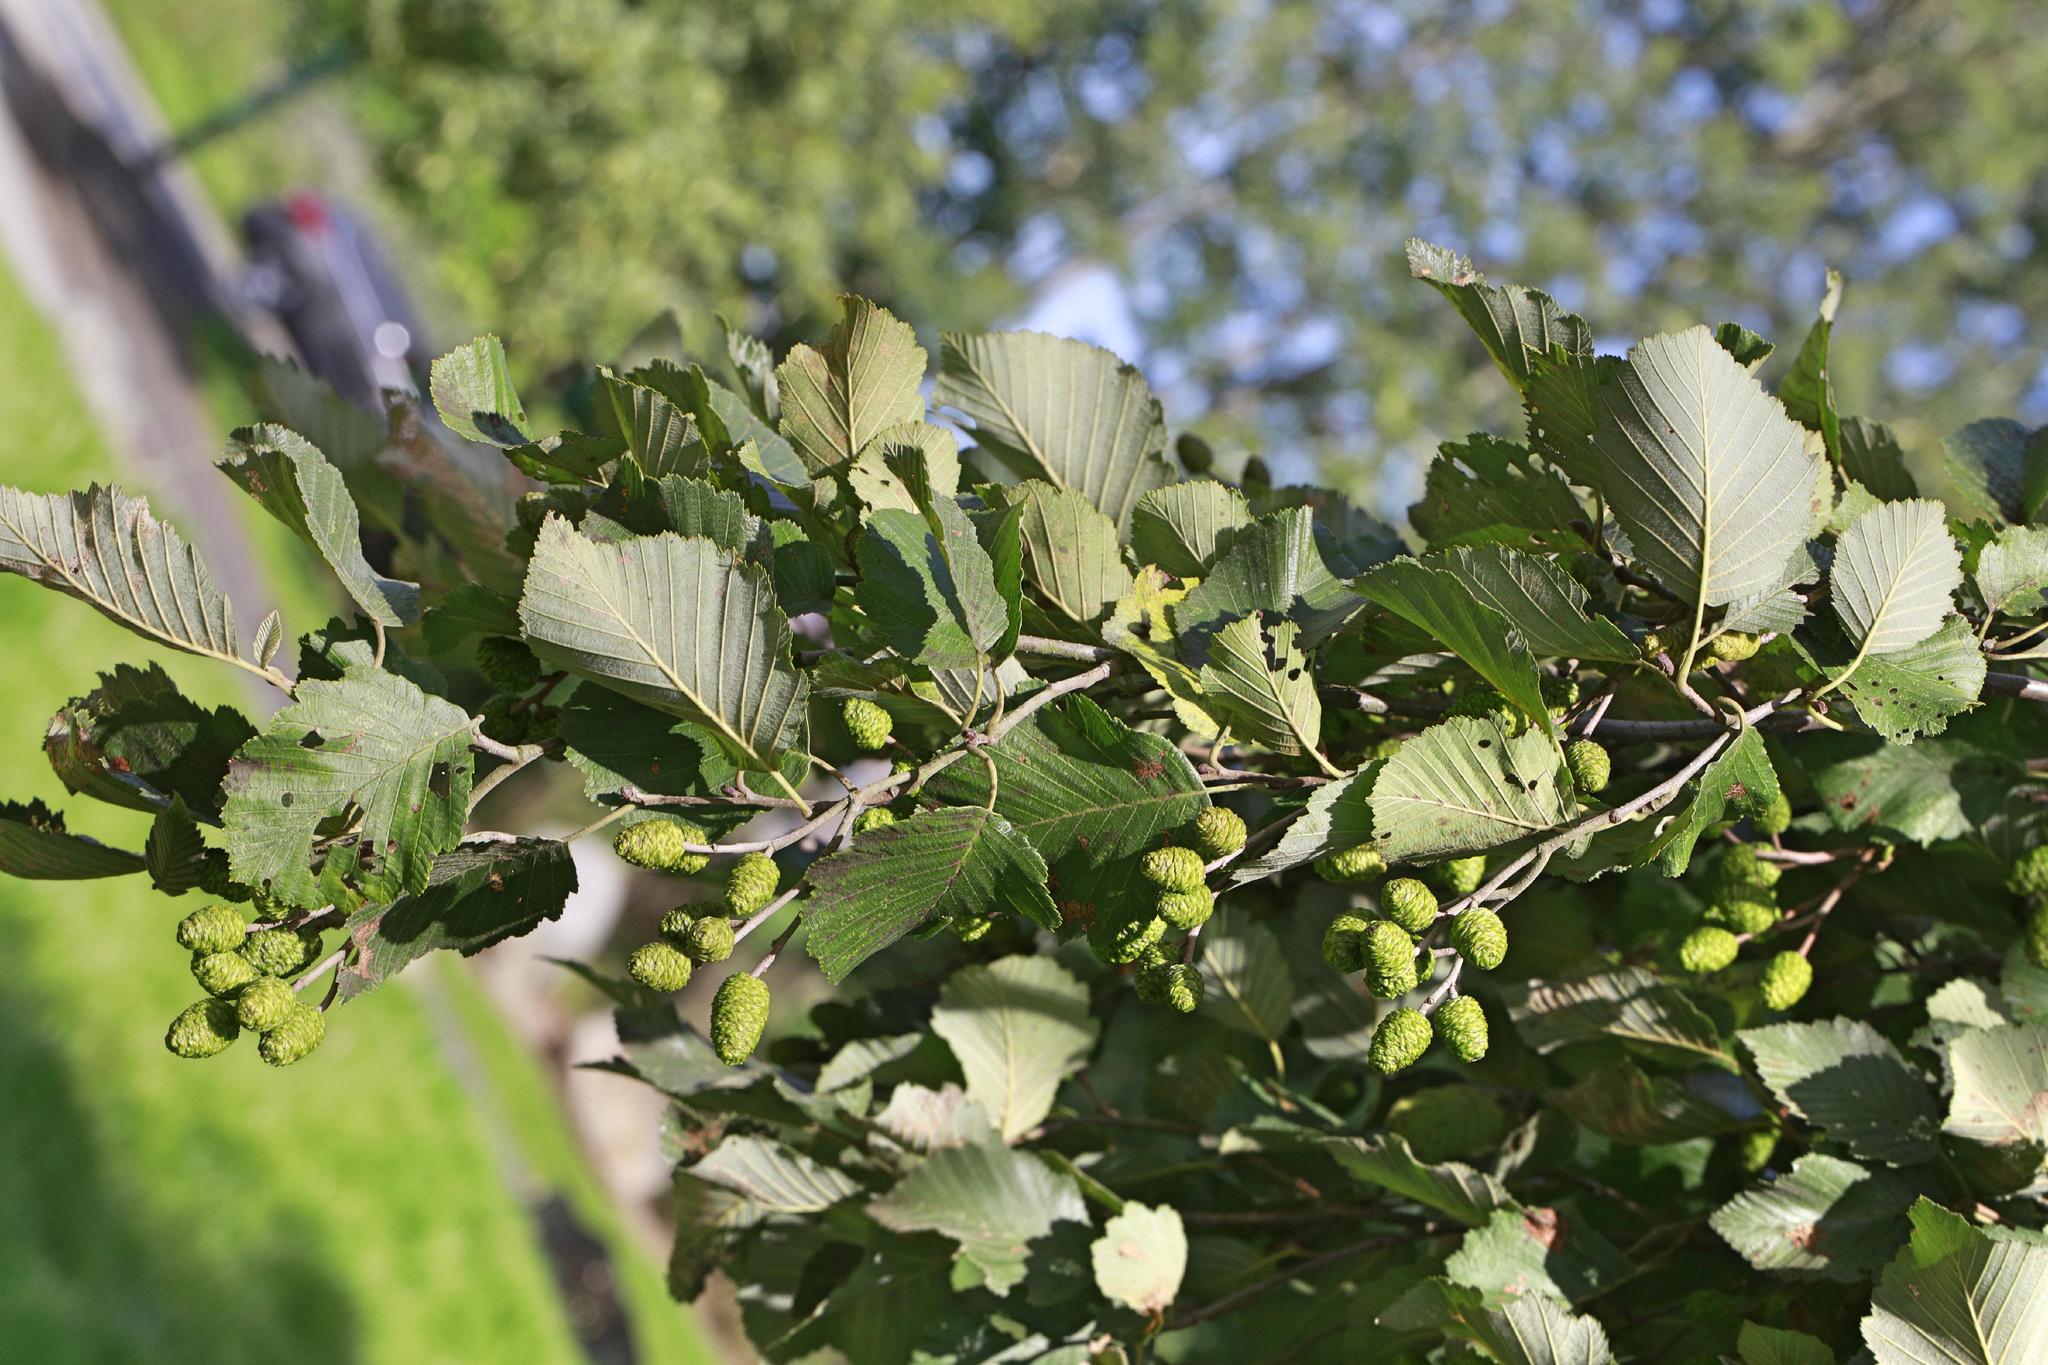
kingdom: Plantae
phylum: Tracheophyta
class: Magnoliopsida
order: Fagales
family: Betulaceae
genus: Alnus
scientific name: Alnus incana
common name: Grey alder
